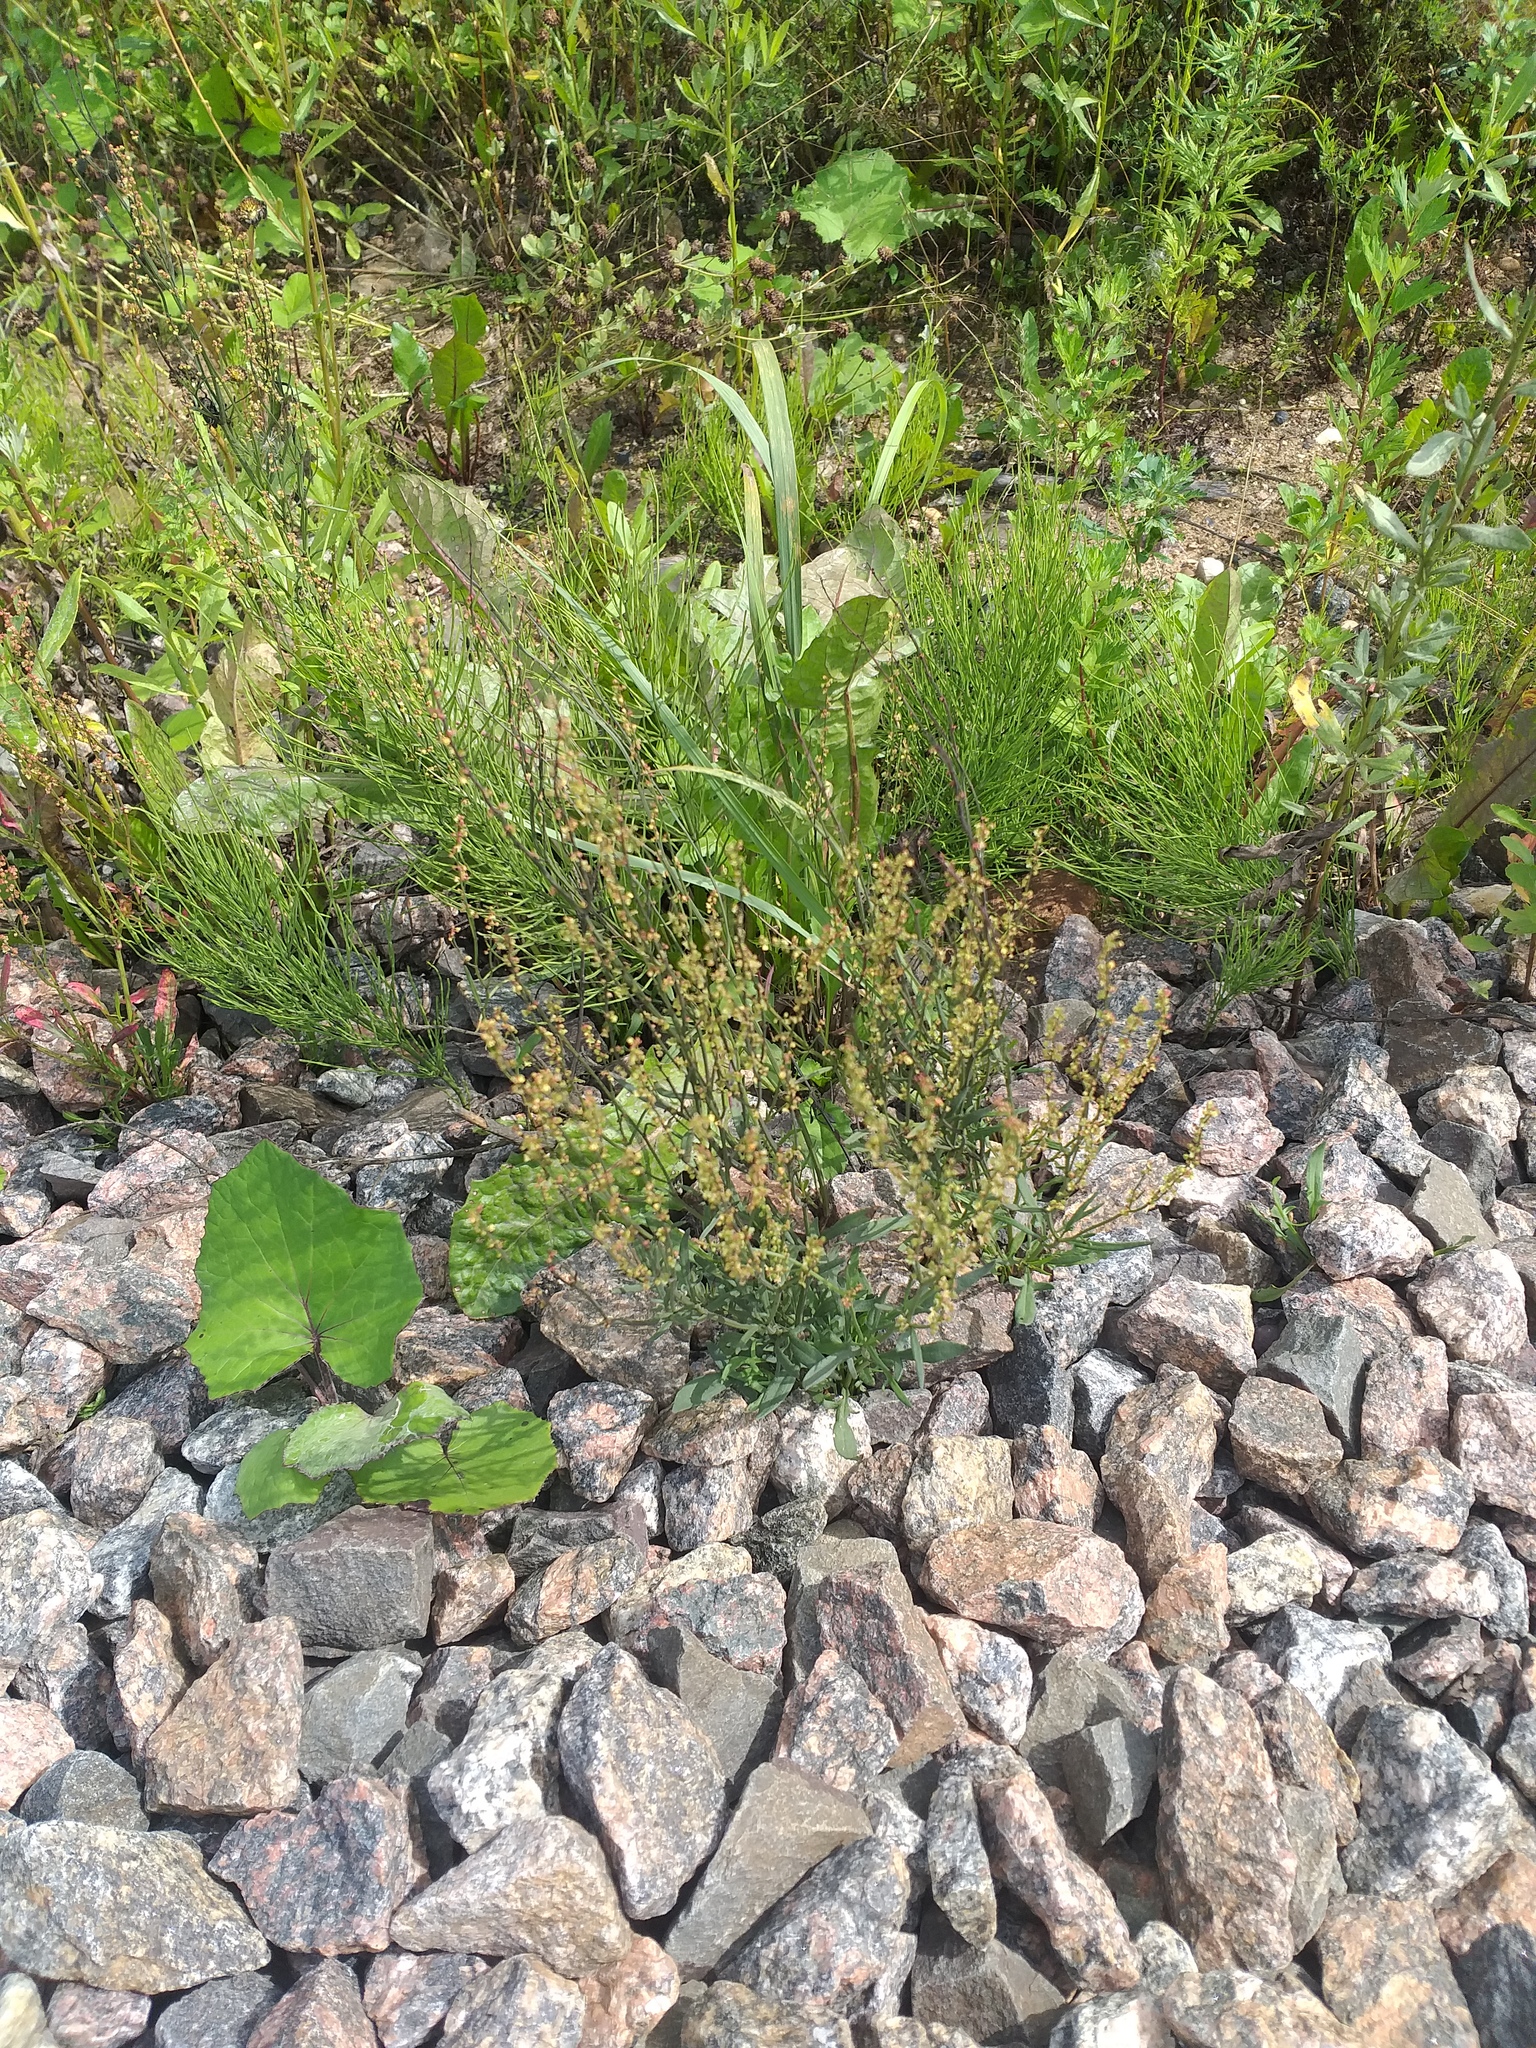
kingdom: Plantae
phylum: Tracheophyta
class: Magnoliopsida
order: Caryophyllales
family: Polygonaceae
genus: Rumex
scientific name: Rumex acetosella
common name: Common sheep sorrel
